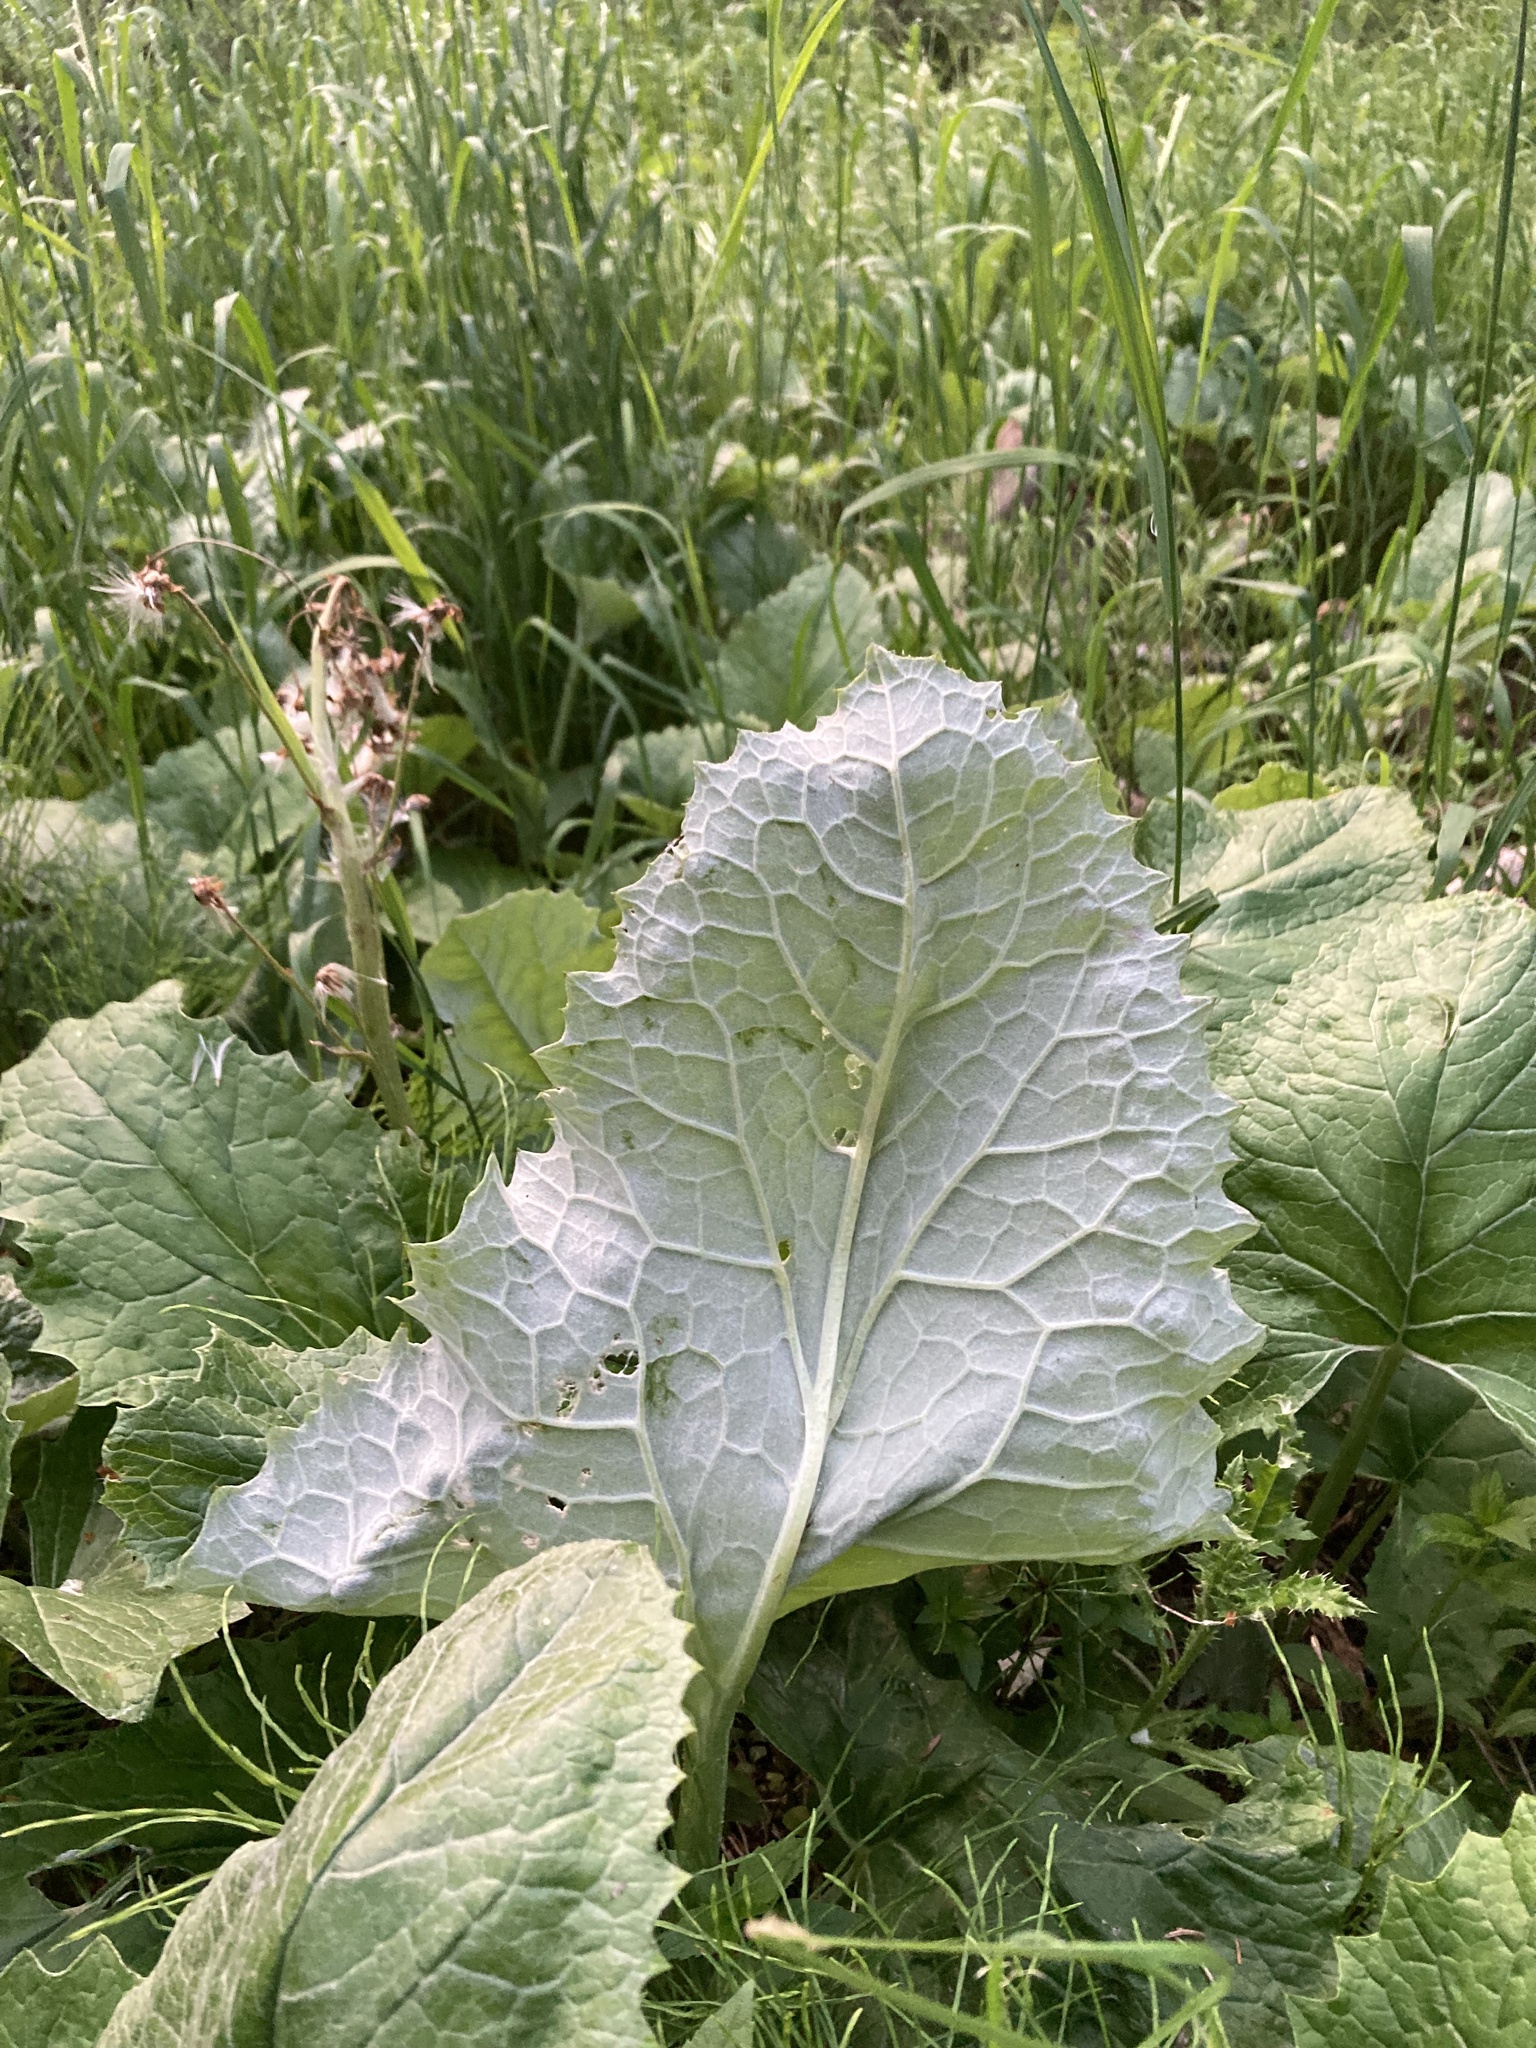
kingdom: Plantae
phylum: Tracheophyta
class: Magnoliopsida
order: Asterales
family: Asteraceae
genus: Petasites
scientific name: Petasites frigidus
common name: Arctic butterbur
